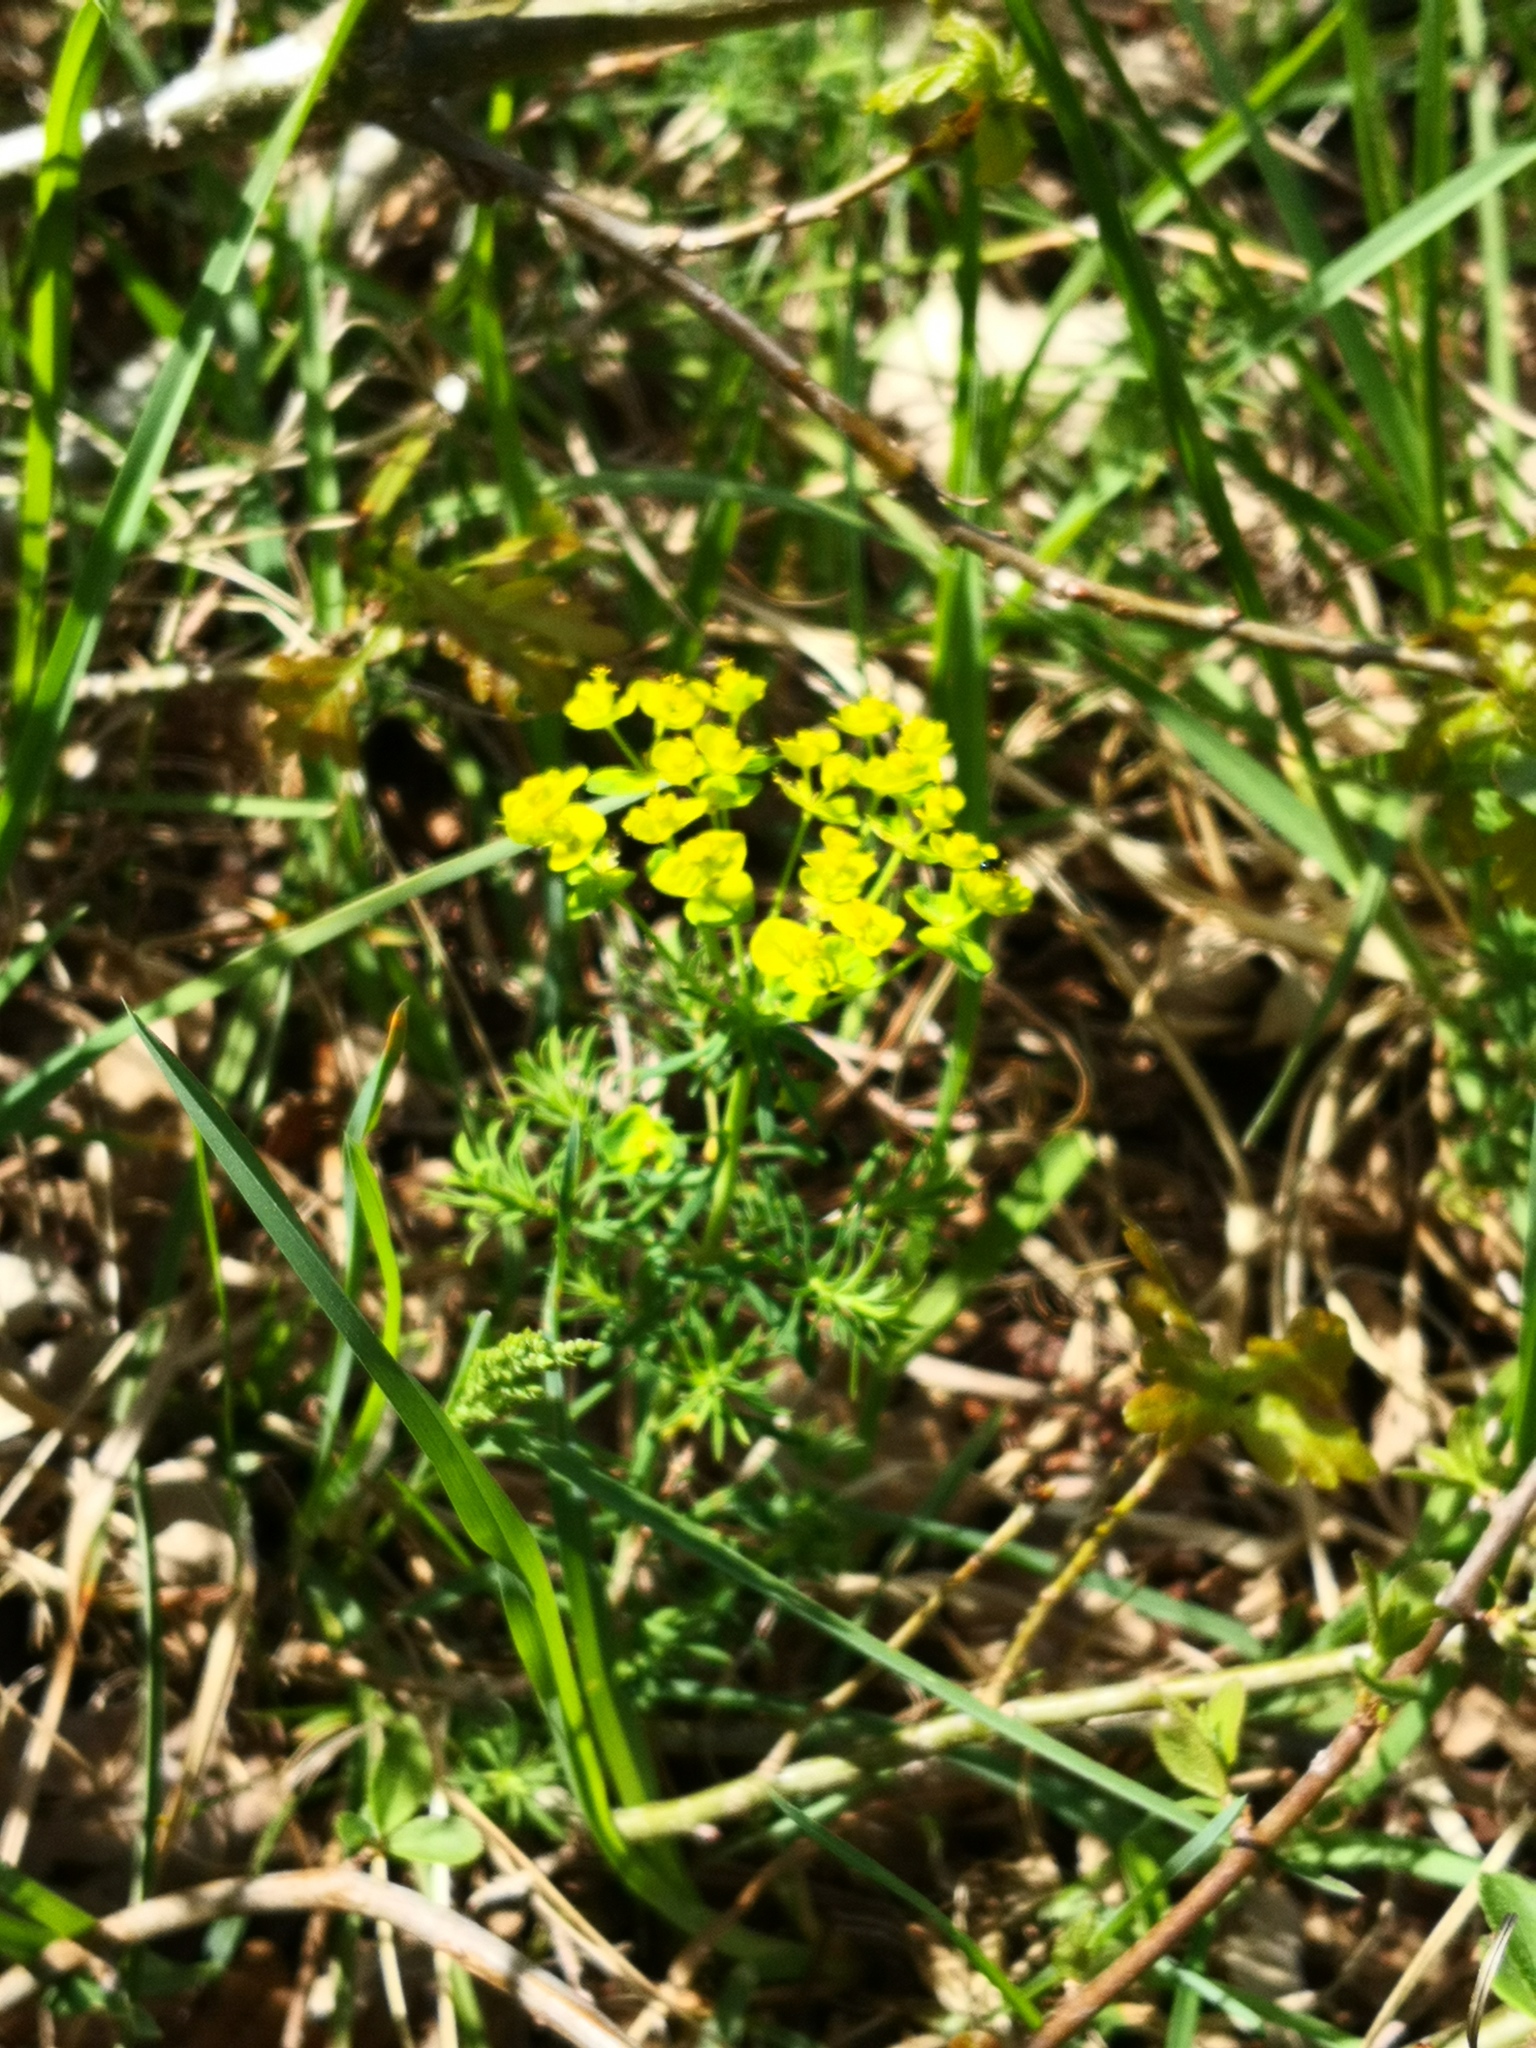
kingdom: Plantae
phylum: Tracheophyta
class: Magnoliopsida
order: Malpighiales
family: Euphorbiaceae
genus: Euphorbia
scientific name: Euphorbia cyparissias
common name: Cypress spurge
